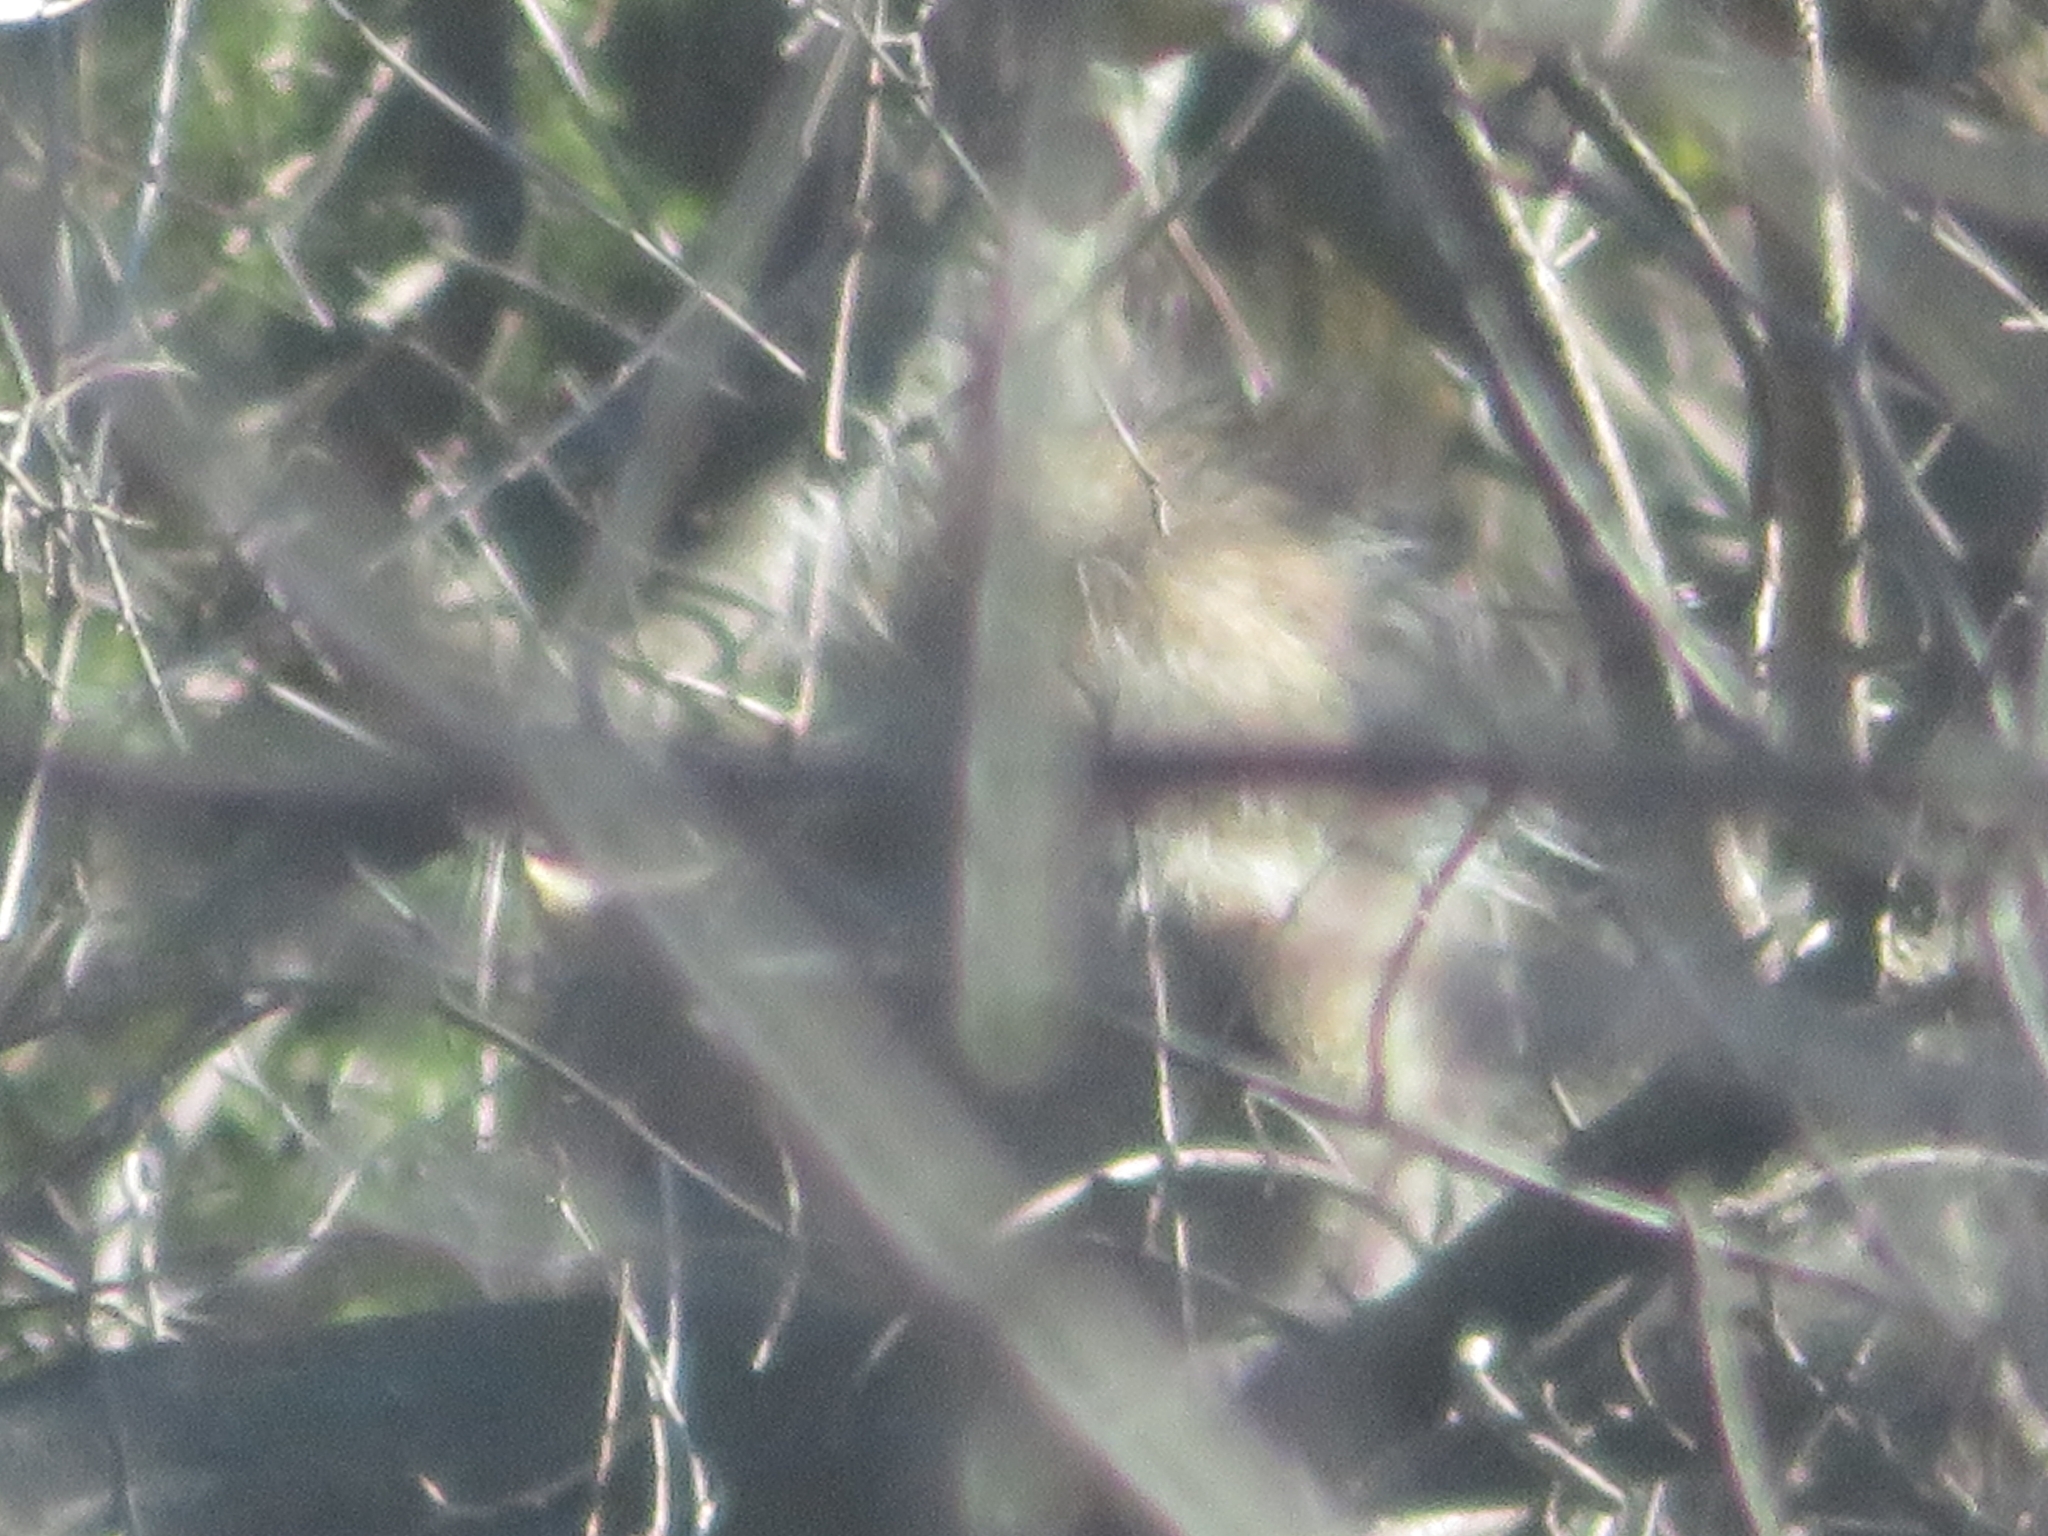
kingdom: Animalia
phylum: Chordata
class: Mammalia
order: Rodentia
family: Sciuridae
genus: Sciurus
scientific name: Sciurus carolinensis
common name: Eastern gray squirrel
